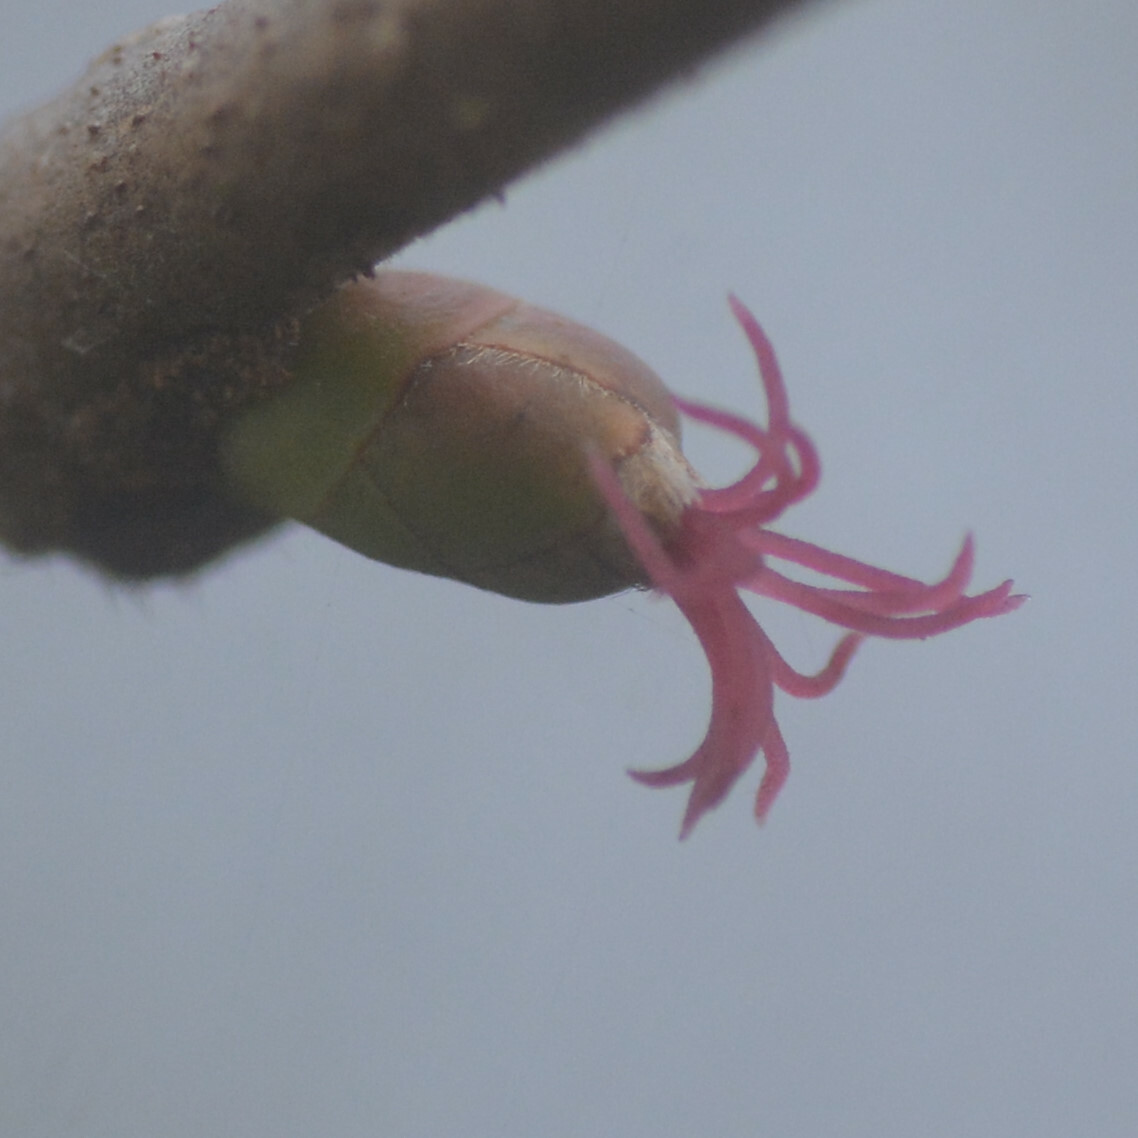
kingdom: Plantae
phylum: Tracheophyta
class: Magnoliopsida
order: Fagales
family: Betulaceae
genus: Corylus
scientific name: Corylus avellana
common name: European hazel
